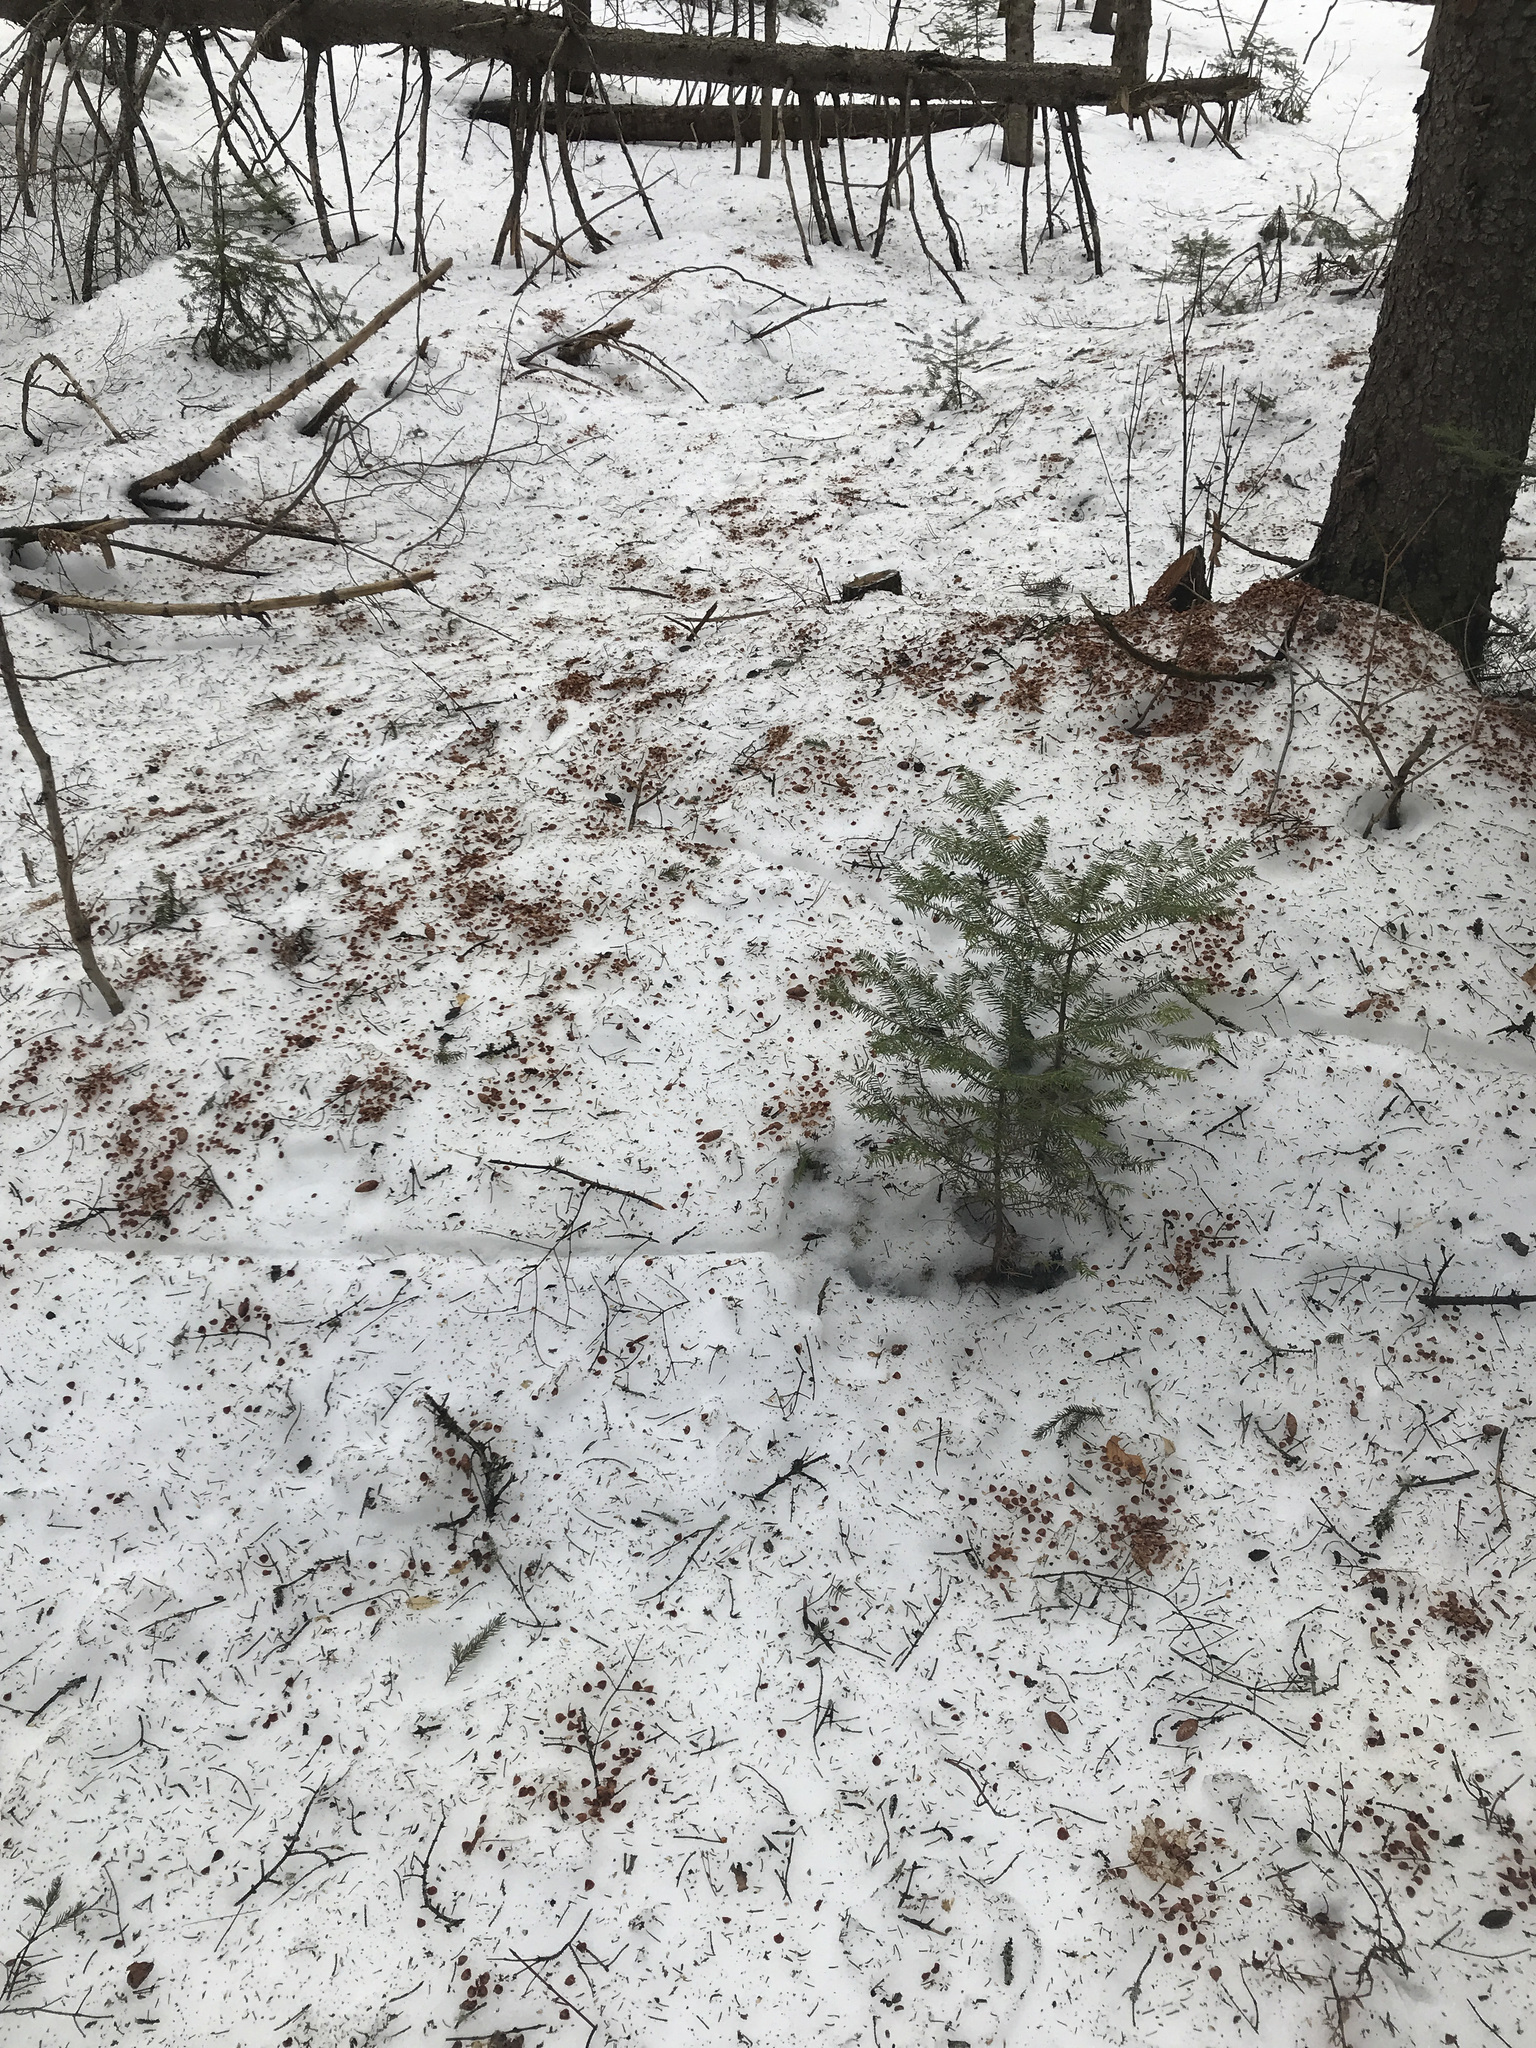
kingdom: Plantae
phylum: Tracheophyta
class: Pinopsida
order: Pinales
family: Pinaceae
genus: Picea
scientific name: Picea rubens
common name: Red spruce
